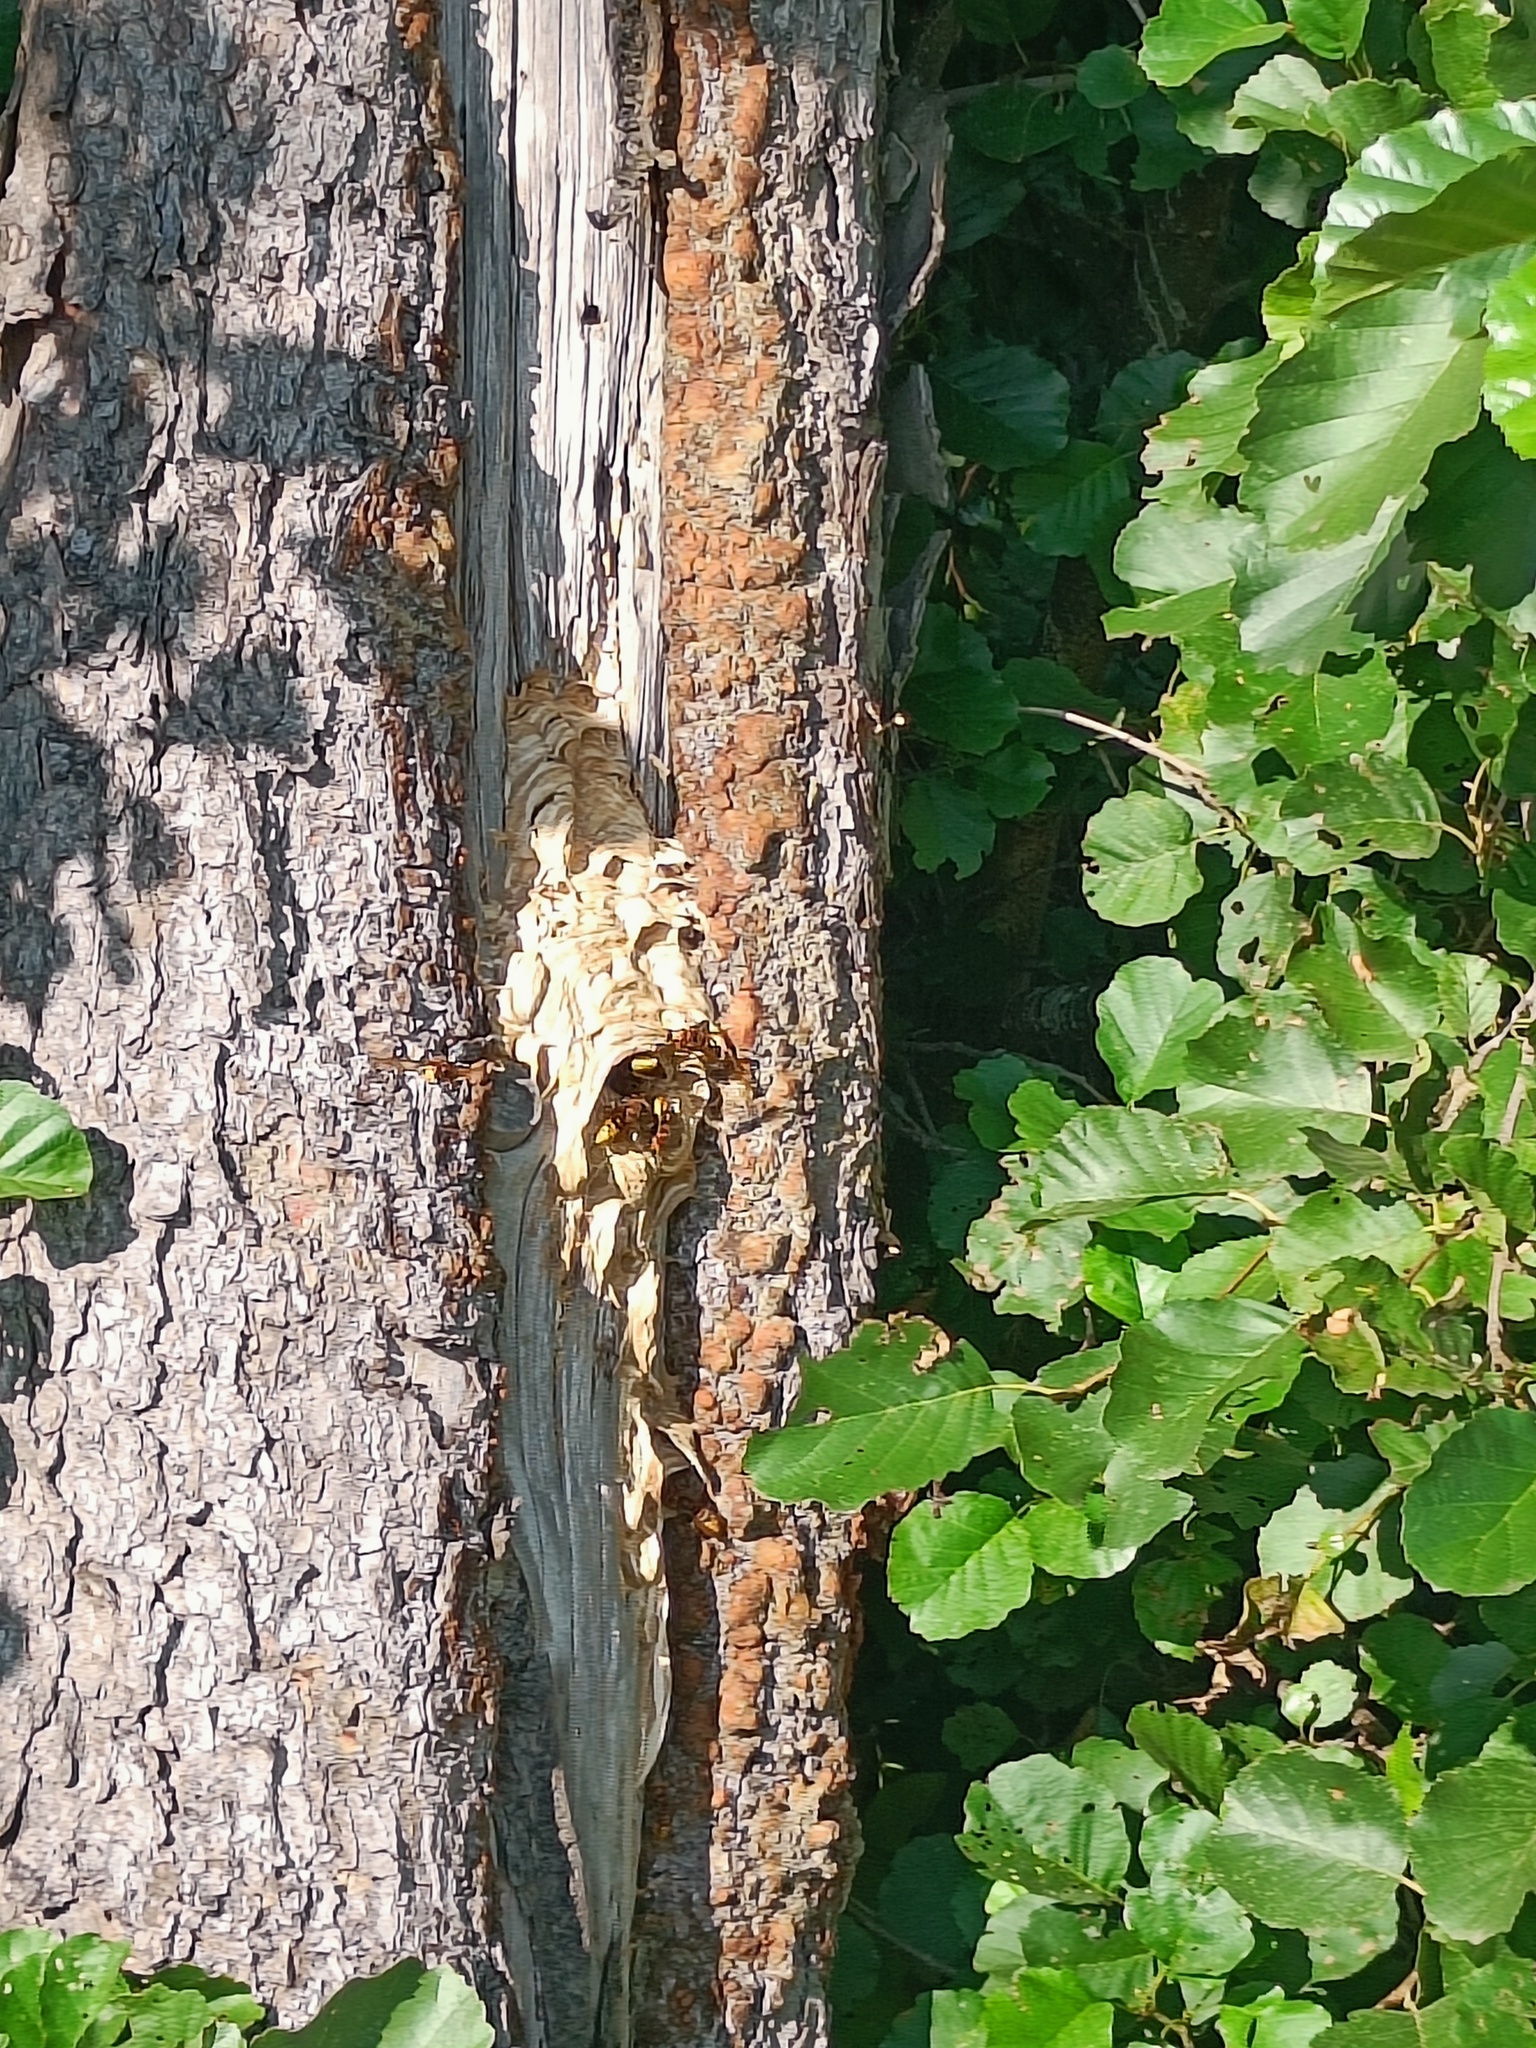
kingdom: Animalia
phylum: Arthropoda
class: Insecta
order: Hymenoptera
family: Vespidae
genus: Vespa
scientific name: Vespa crabro
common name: Hornet
